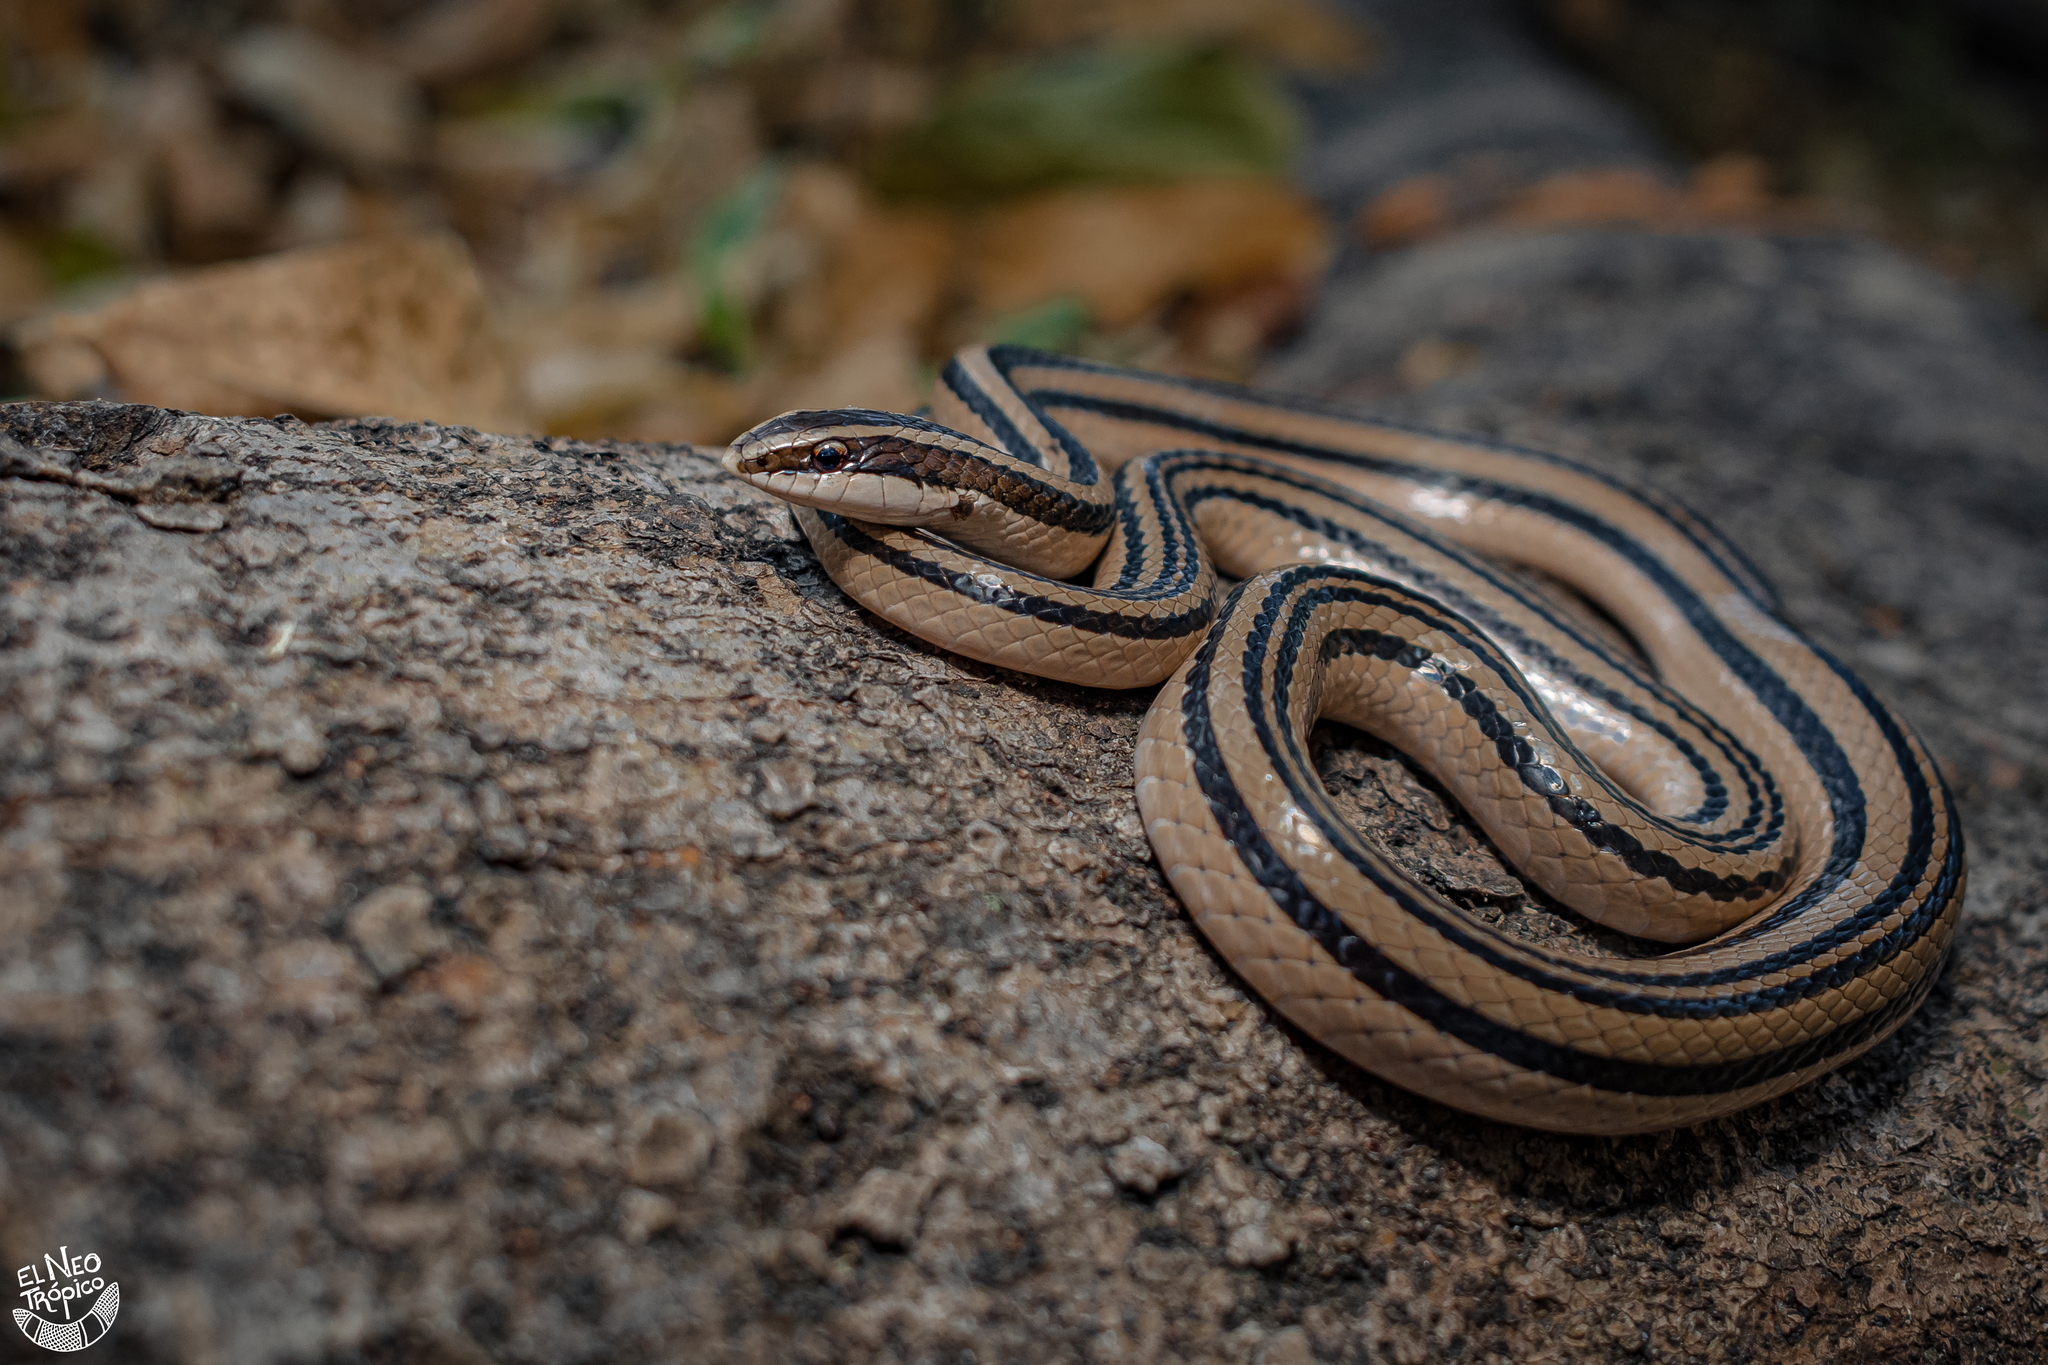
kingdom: Animalia
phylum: Chordata
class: Squamata
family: Colubridae
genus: Conophis
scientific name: Conophis vittatus
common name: Striped road guarder
